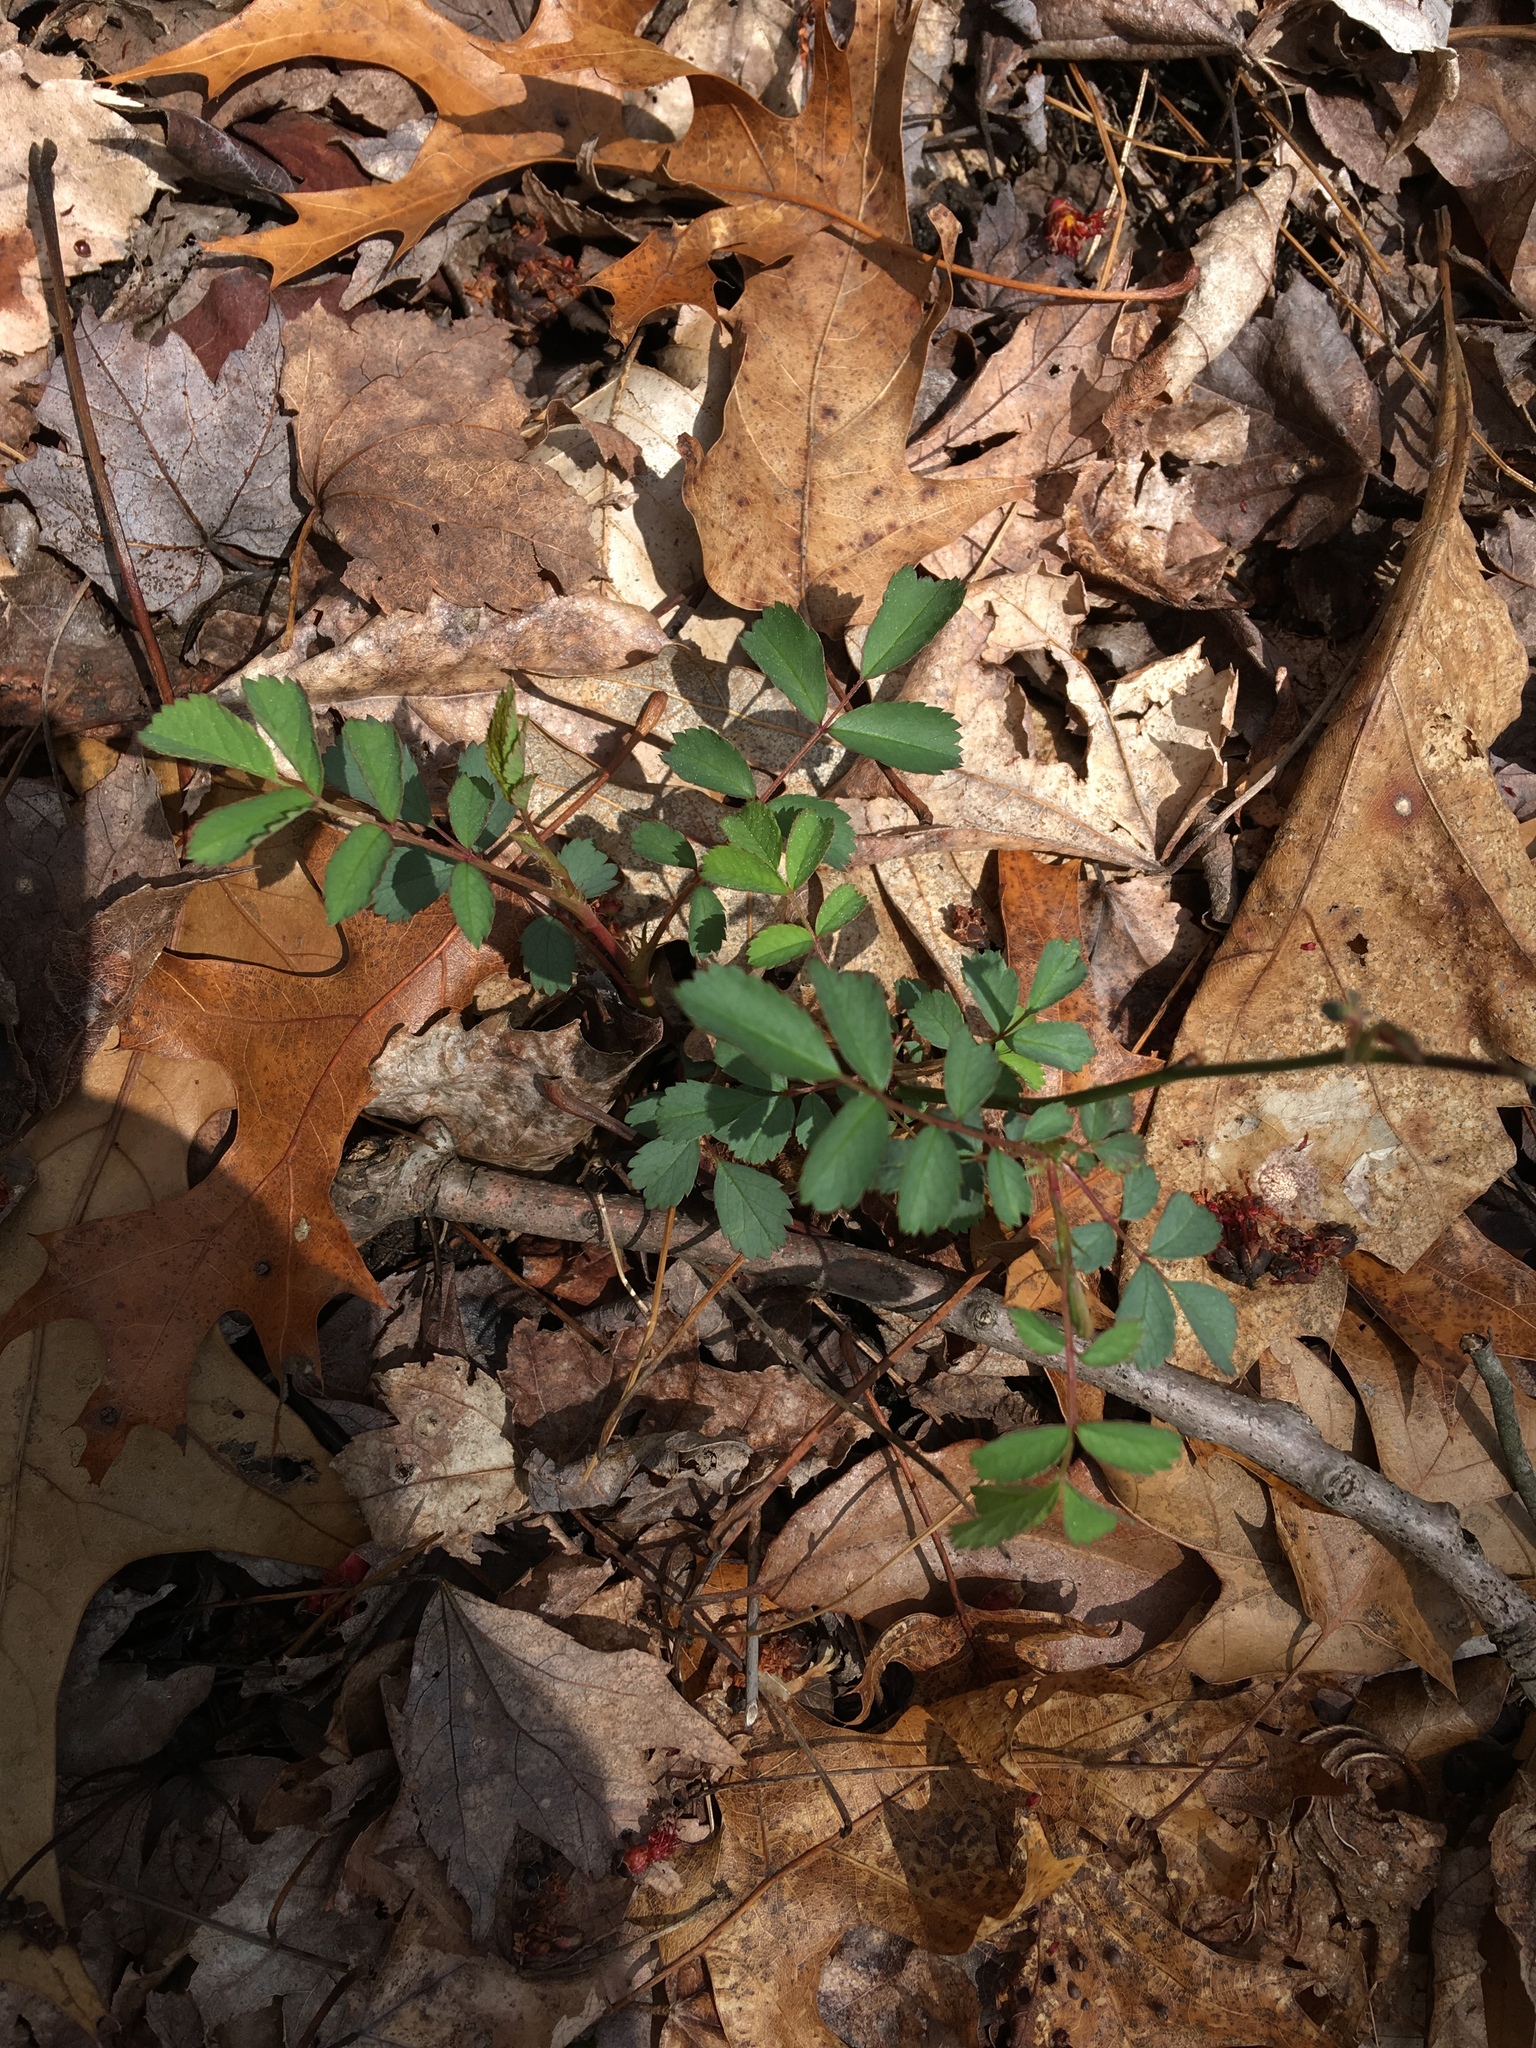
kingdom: Plantae
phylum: Tracheophyta
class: Magnoliopsida
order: Rosales
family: Rosaceae
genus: Rosa
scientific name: Rosa multiflora
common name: Multiflora rose
